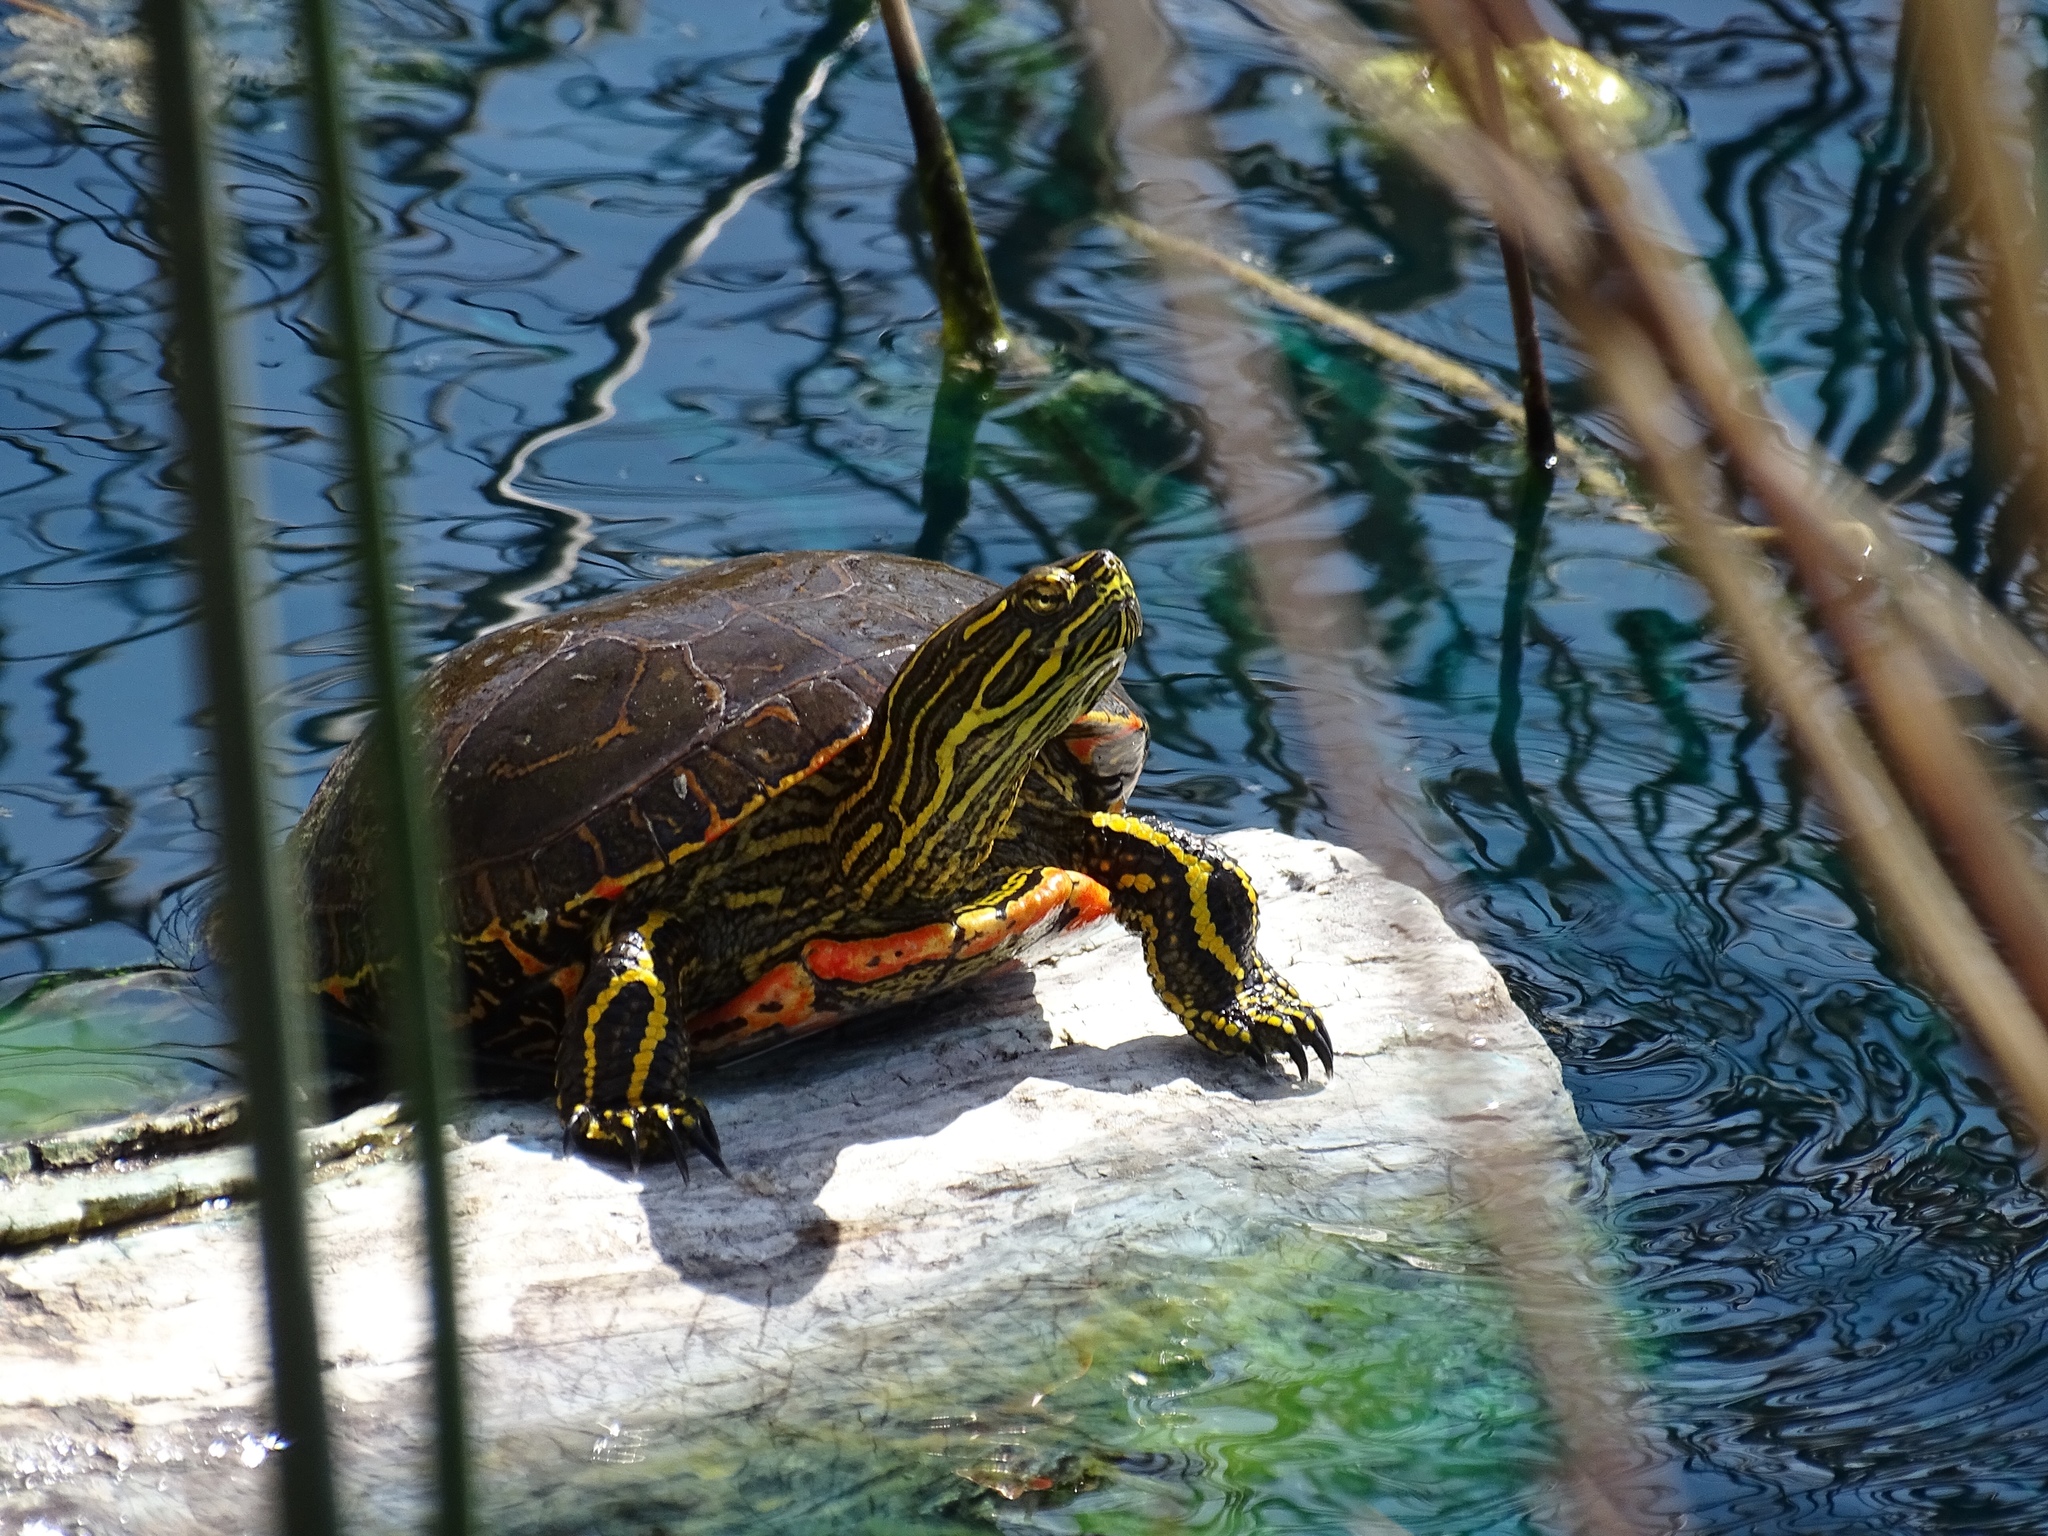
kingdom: Animalia
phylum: Chordata
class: Testudines
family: Emydidae
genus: Chrysemys
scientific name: Chrysemys picta
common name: Painted turtle
